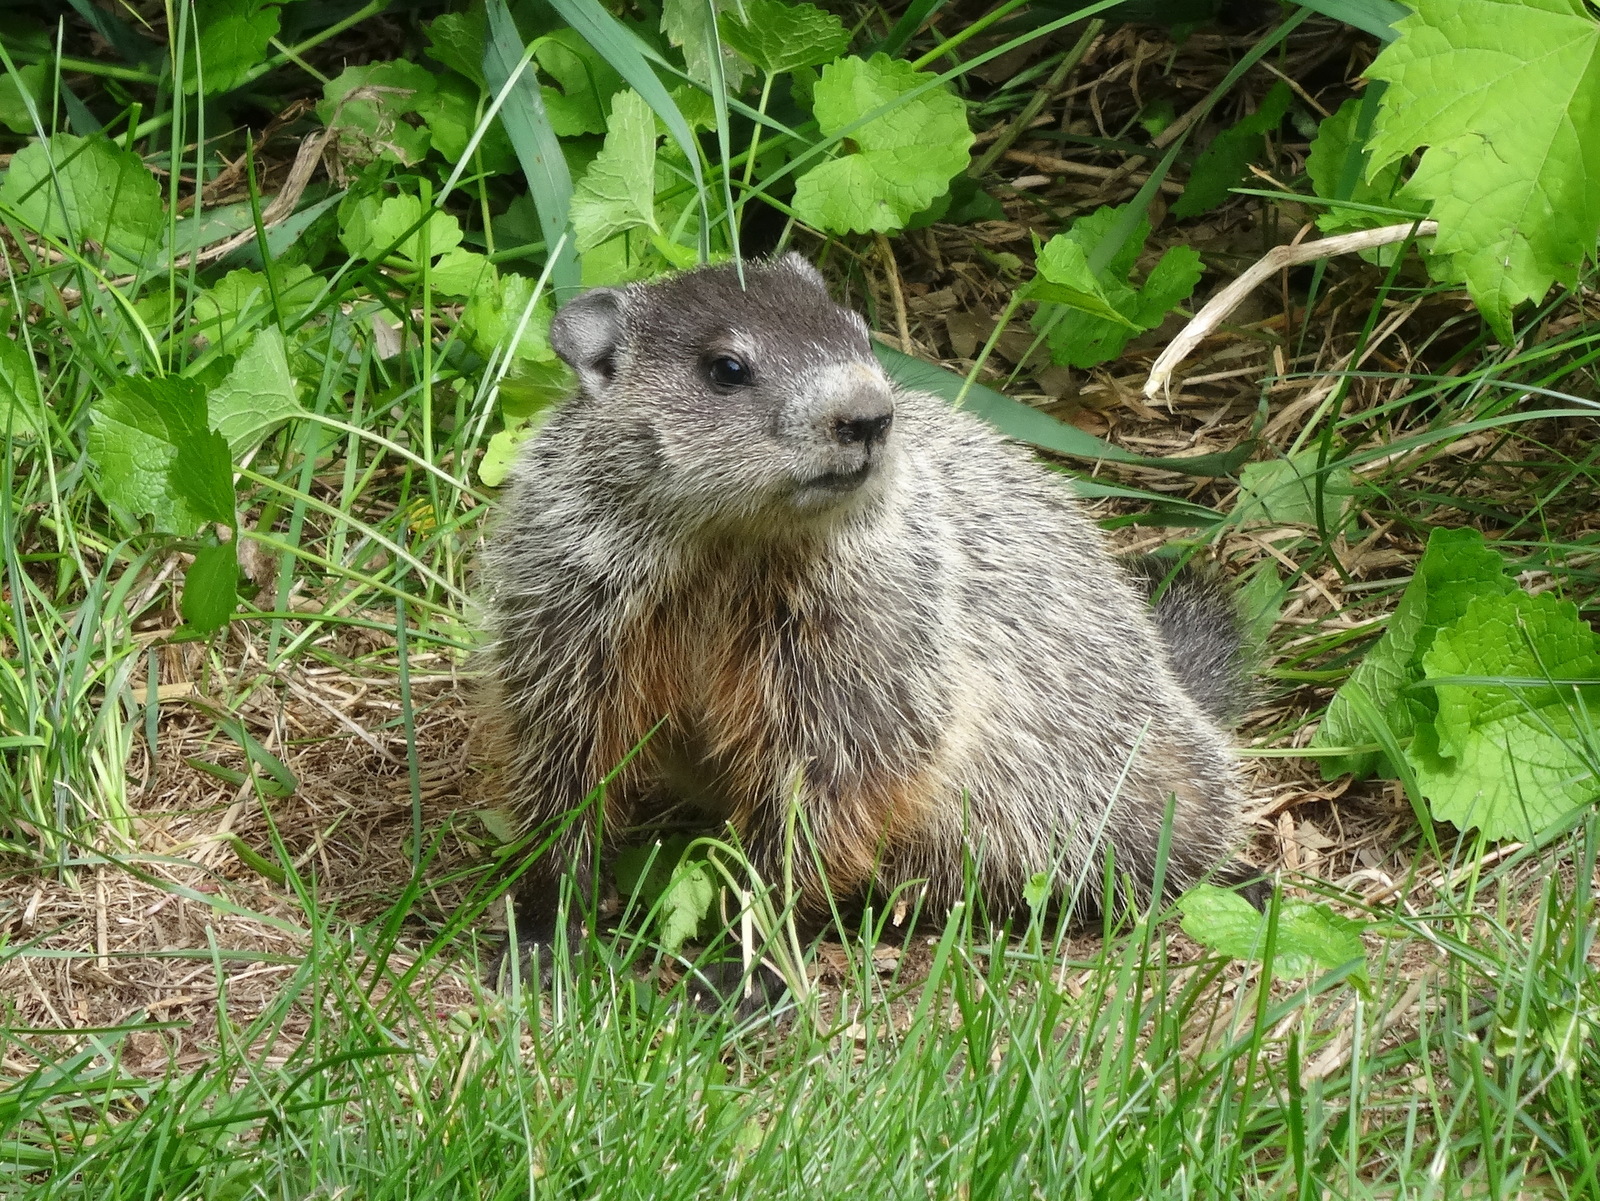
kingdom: Animalia
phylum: Chordata
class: Mammalia
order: Rodentia
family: Sciuridae
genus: Marmota
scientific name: Marmota monax
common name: Groundhog
